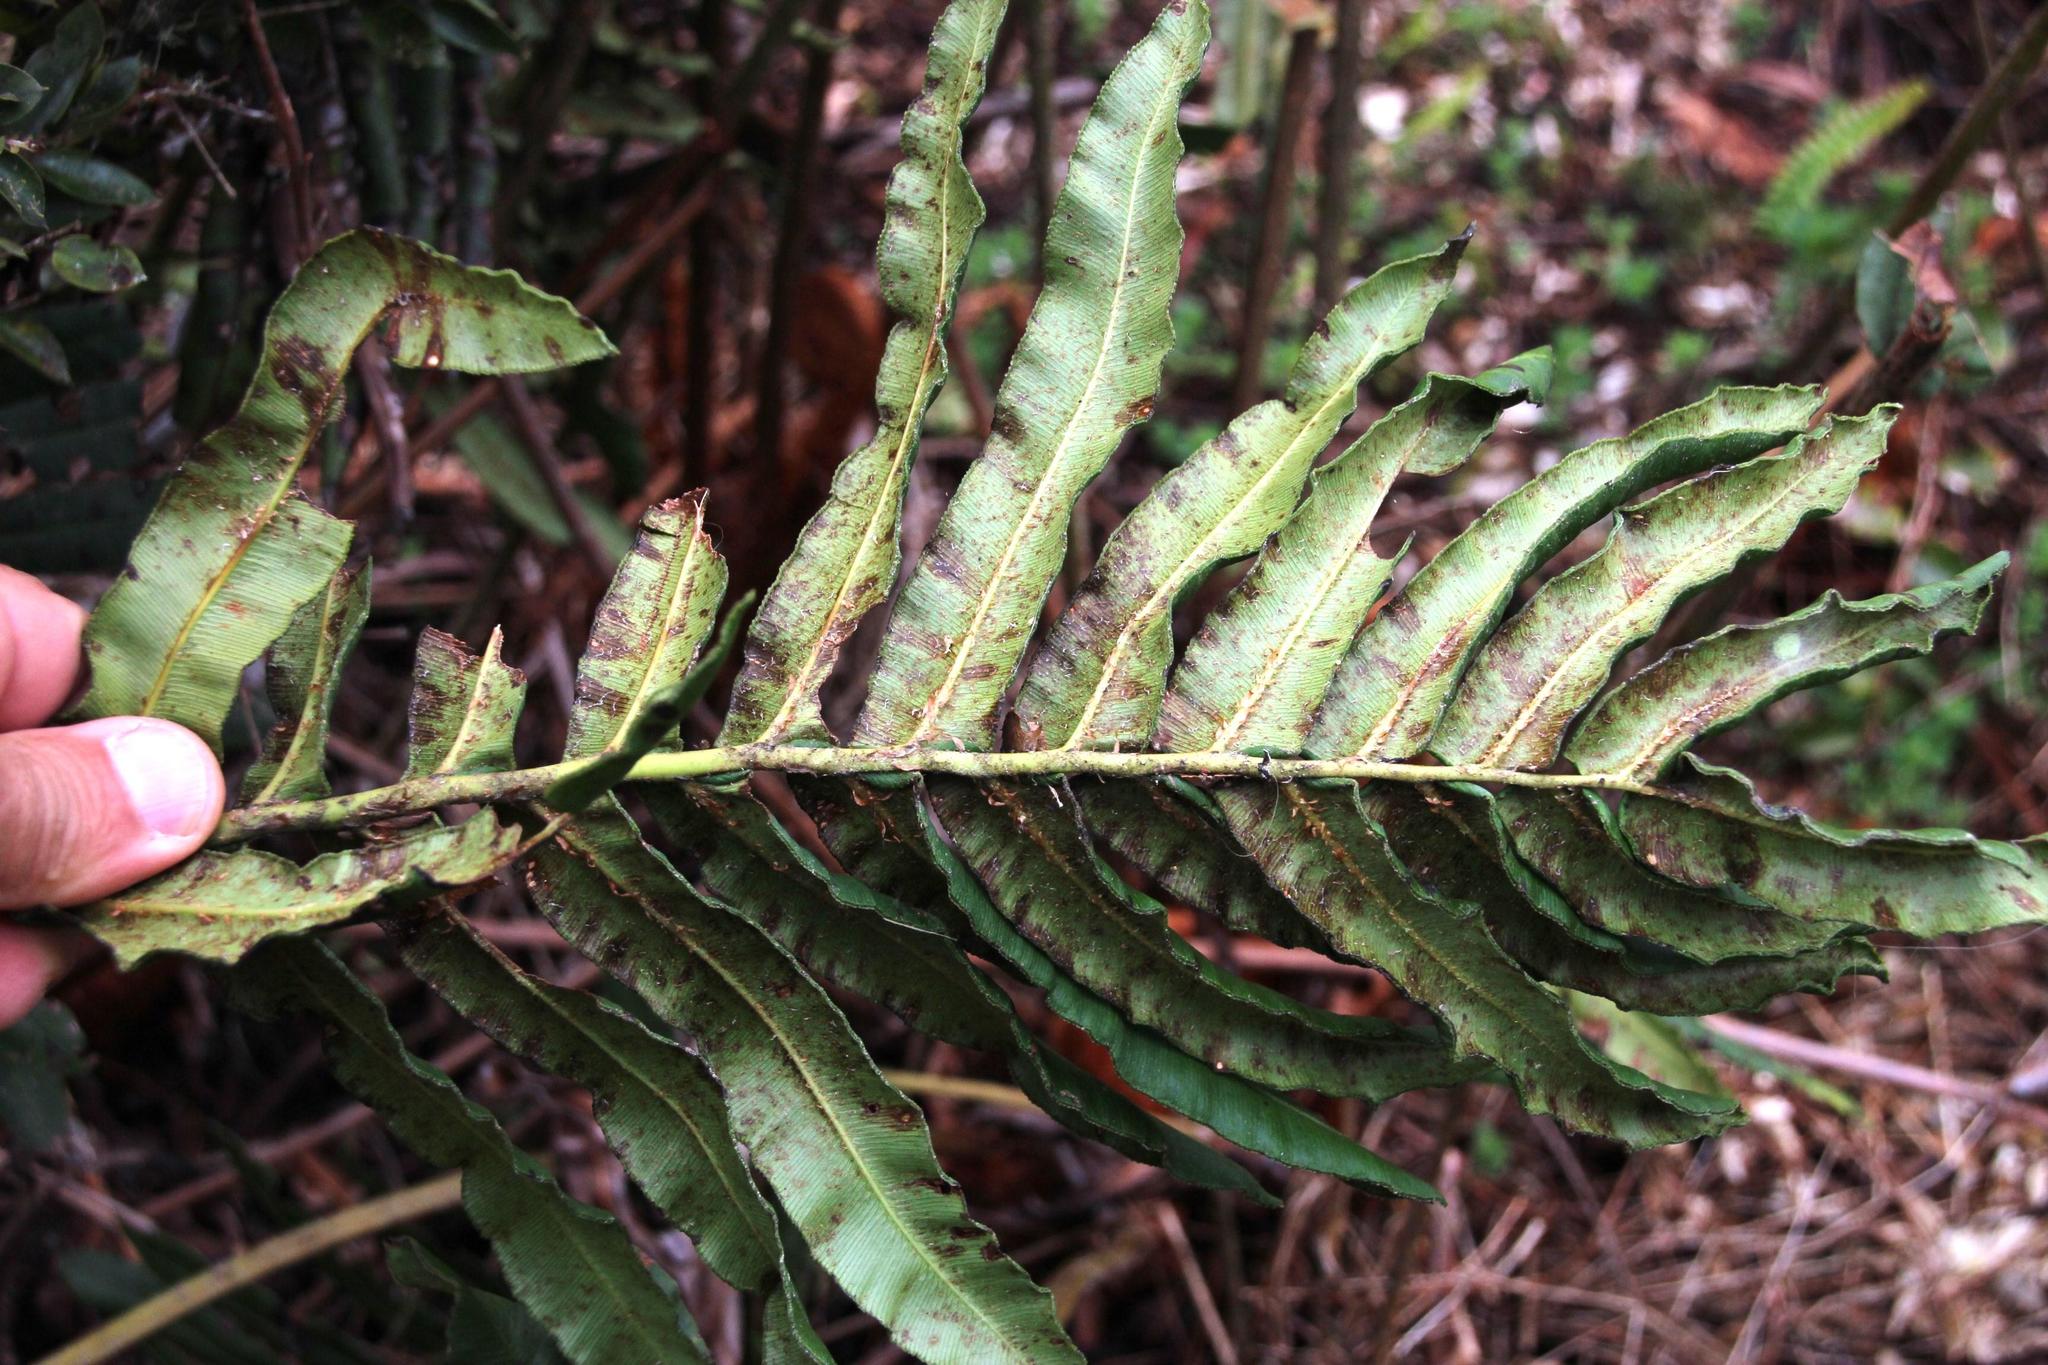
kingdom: Plantae
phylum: Tracheophyta
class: Polypodiopsida
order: Polypodiales
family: Blechnaceae
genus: Parablechnum
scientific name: Parablechnum chilense
